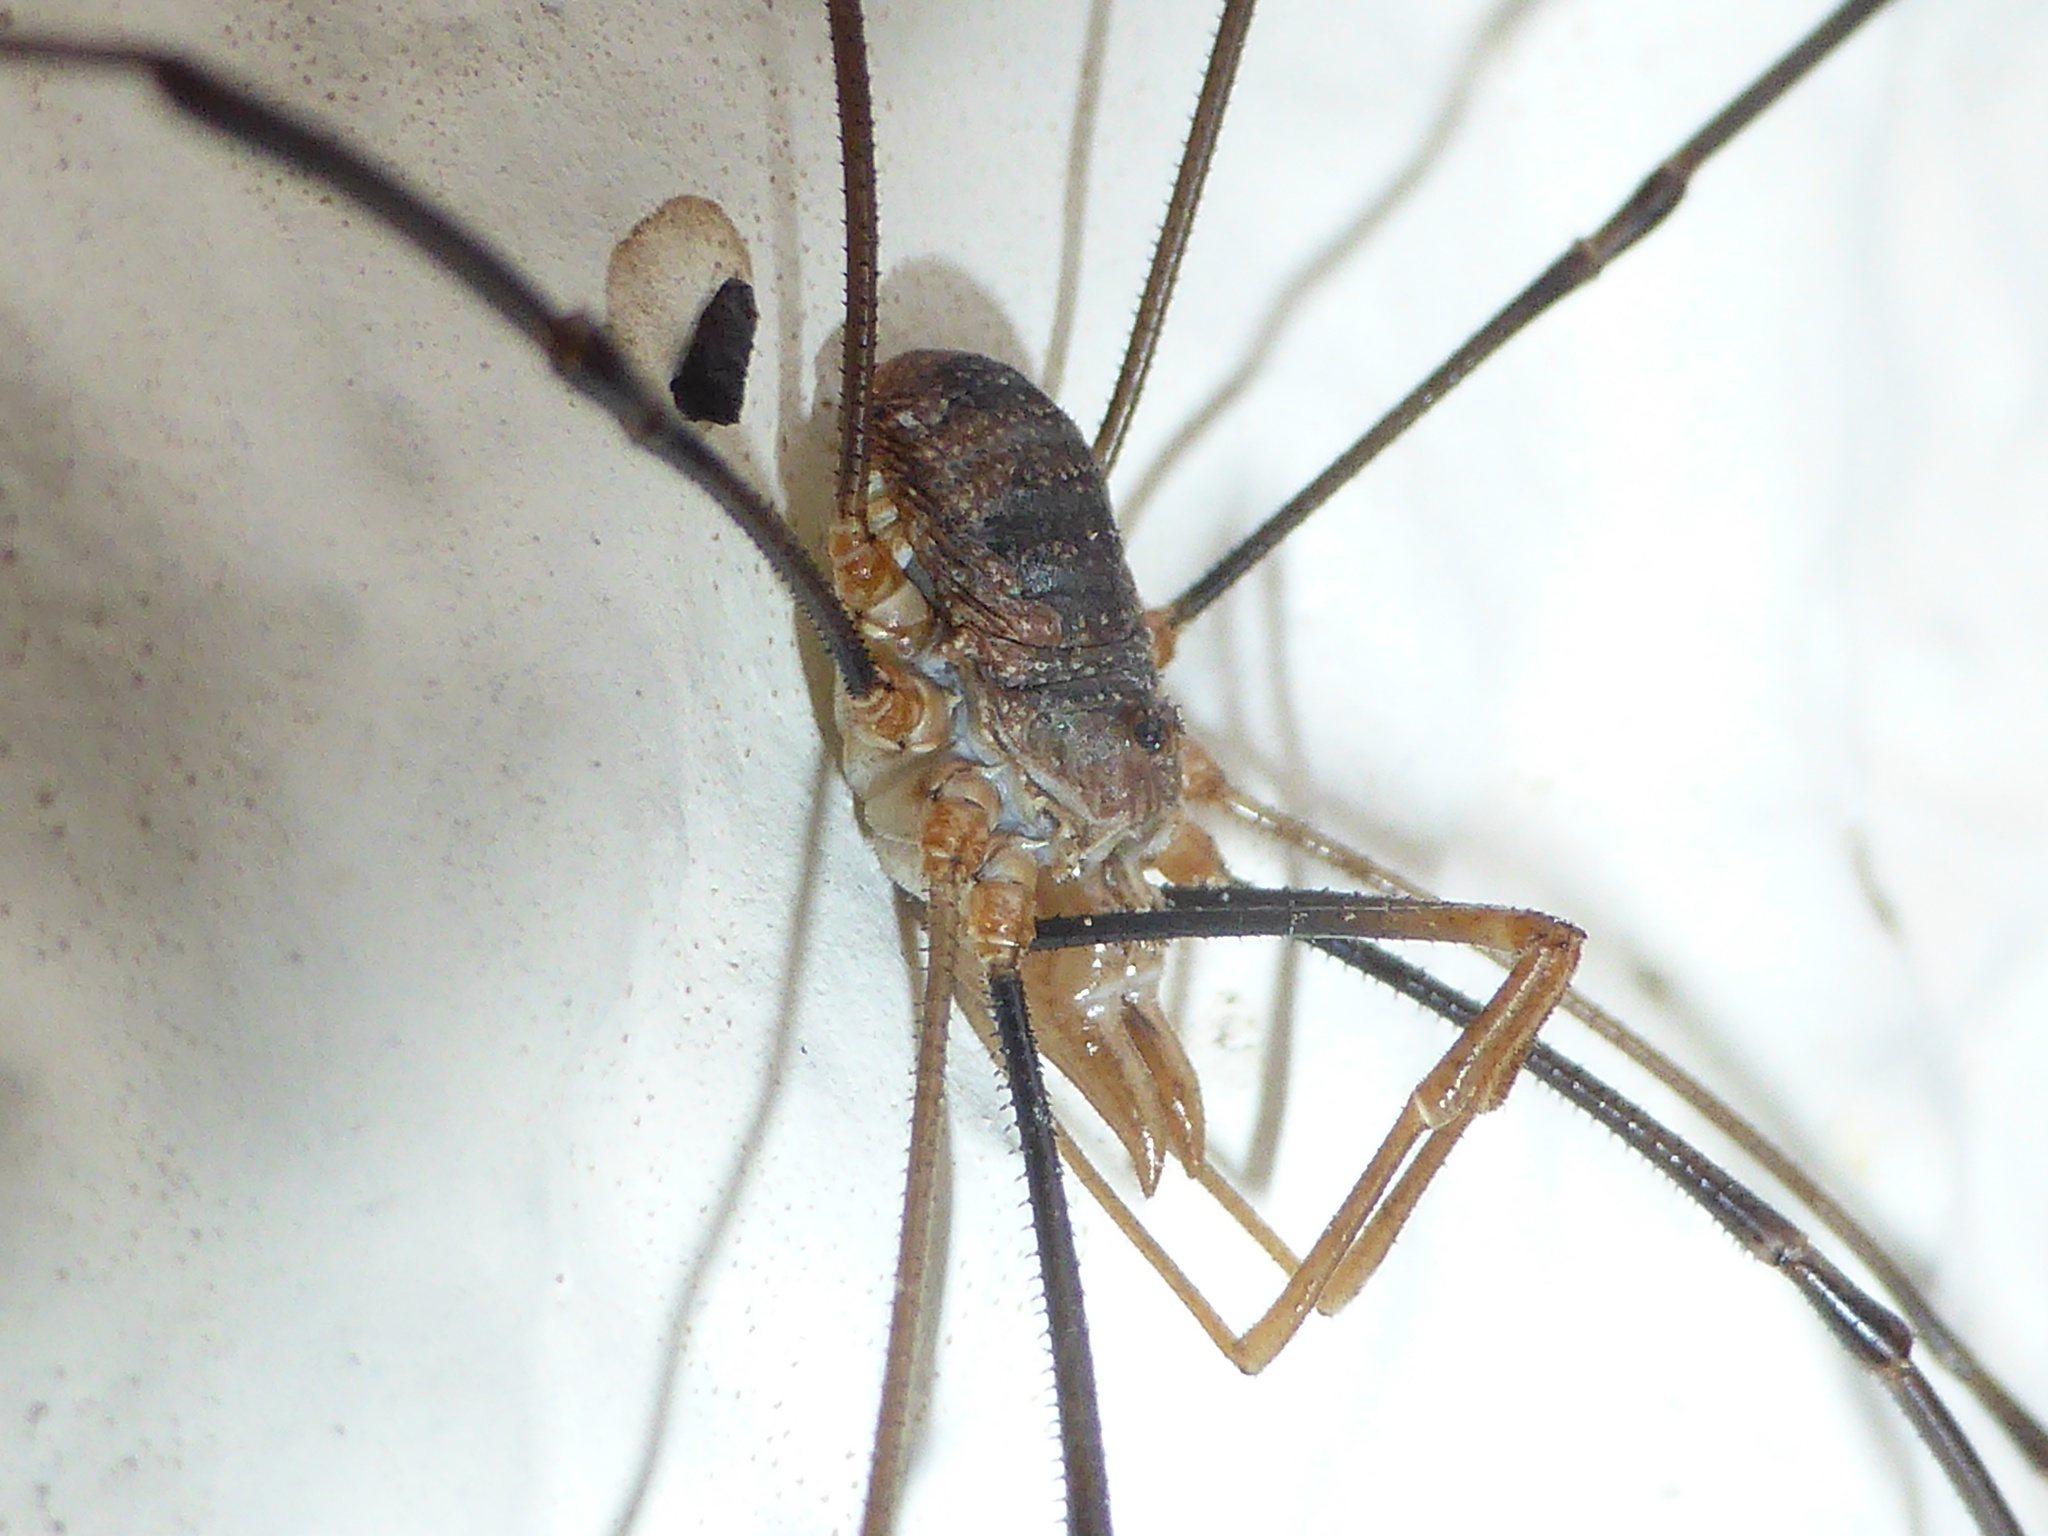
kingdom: Animalia
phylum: Arthropoda
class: Arachnida
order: Opiliones
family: Phalangiidae
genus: Phalangium
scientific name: Phalangium opilio
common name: Daddy longleg
